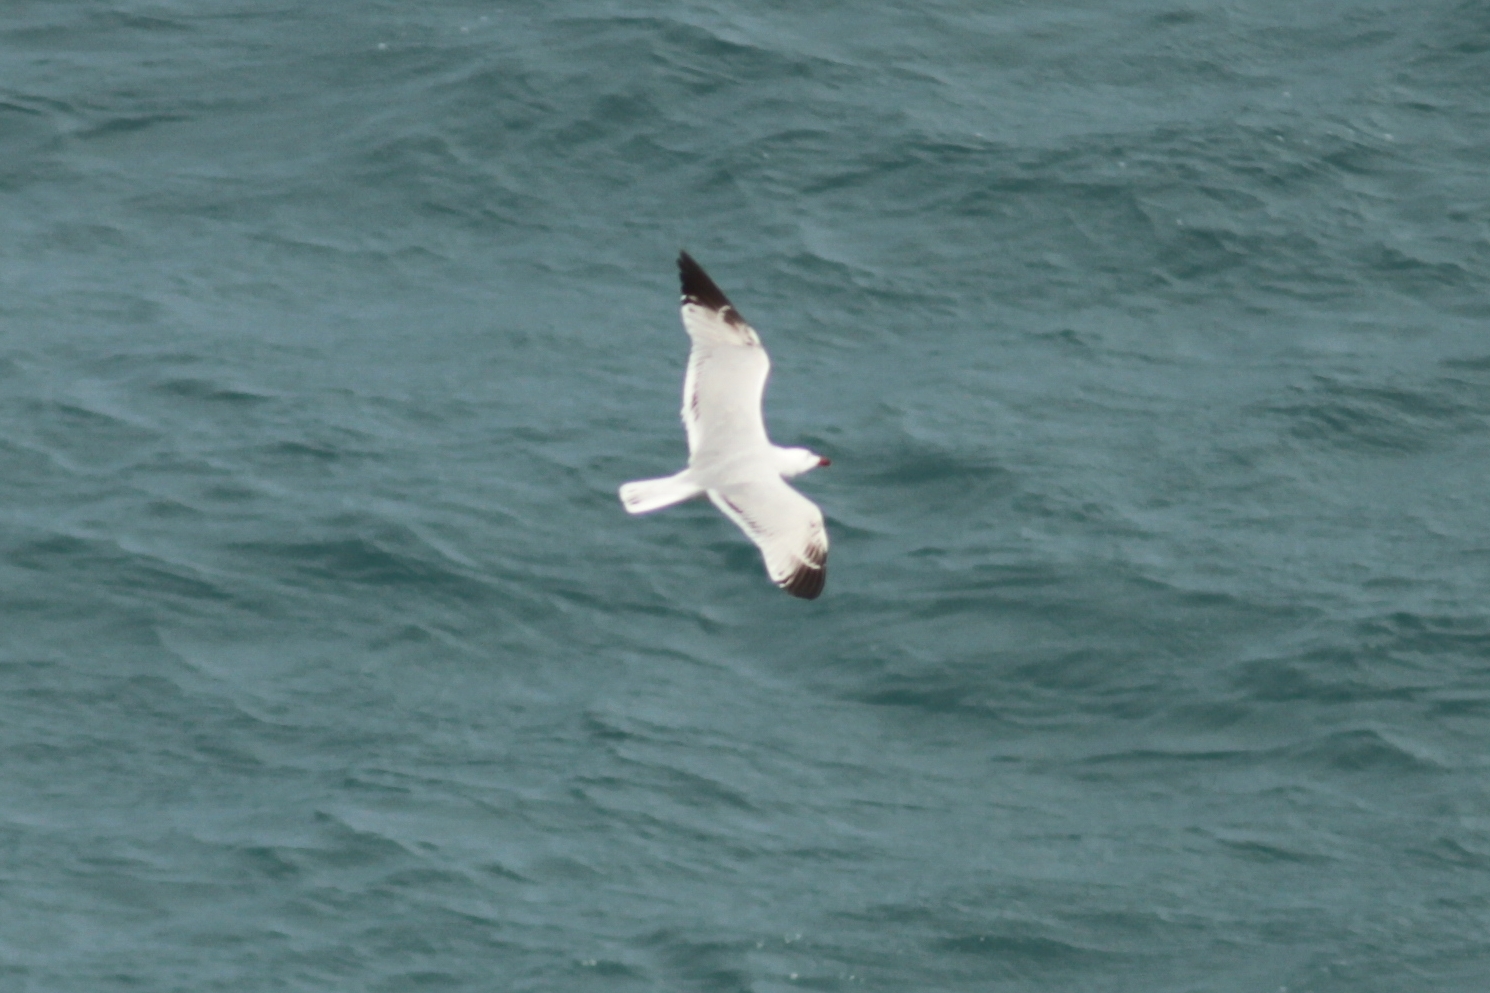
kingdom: Animalia
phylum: Chordata
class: Aves
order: Charadriiformes
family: Laridae
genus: Ichthyaetus
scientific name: Ichthyaetus audouinii
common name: Audouin's gull
